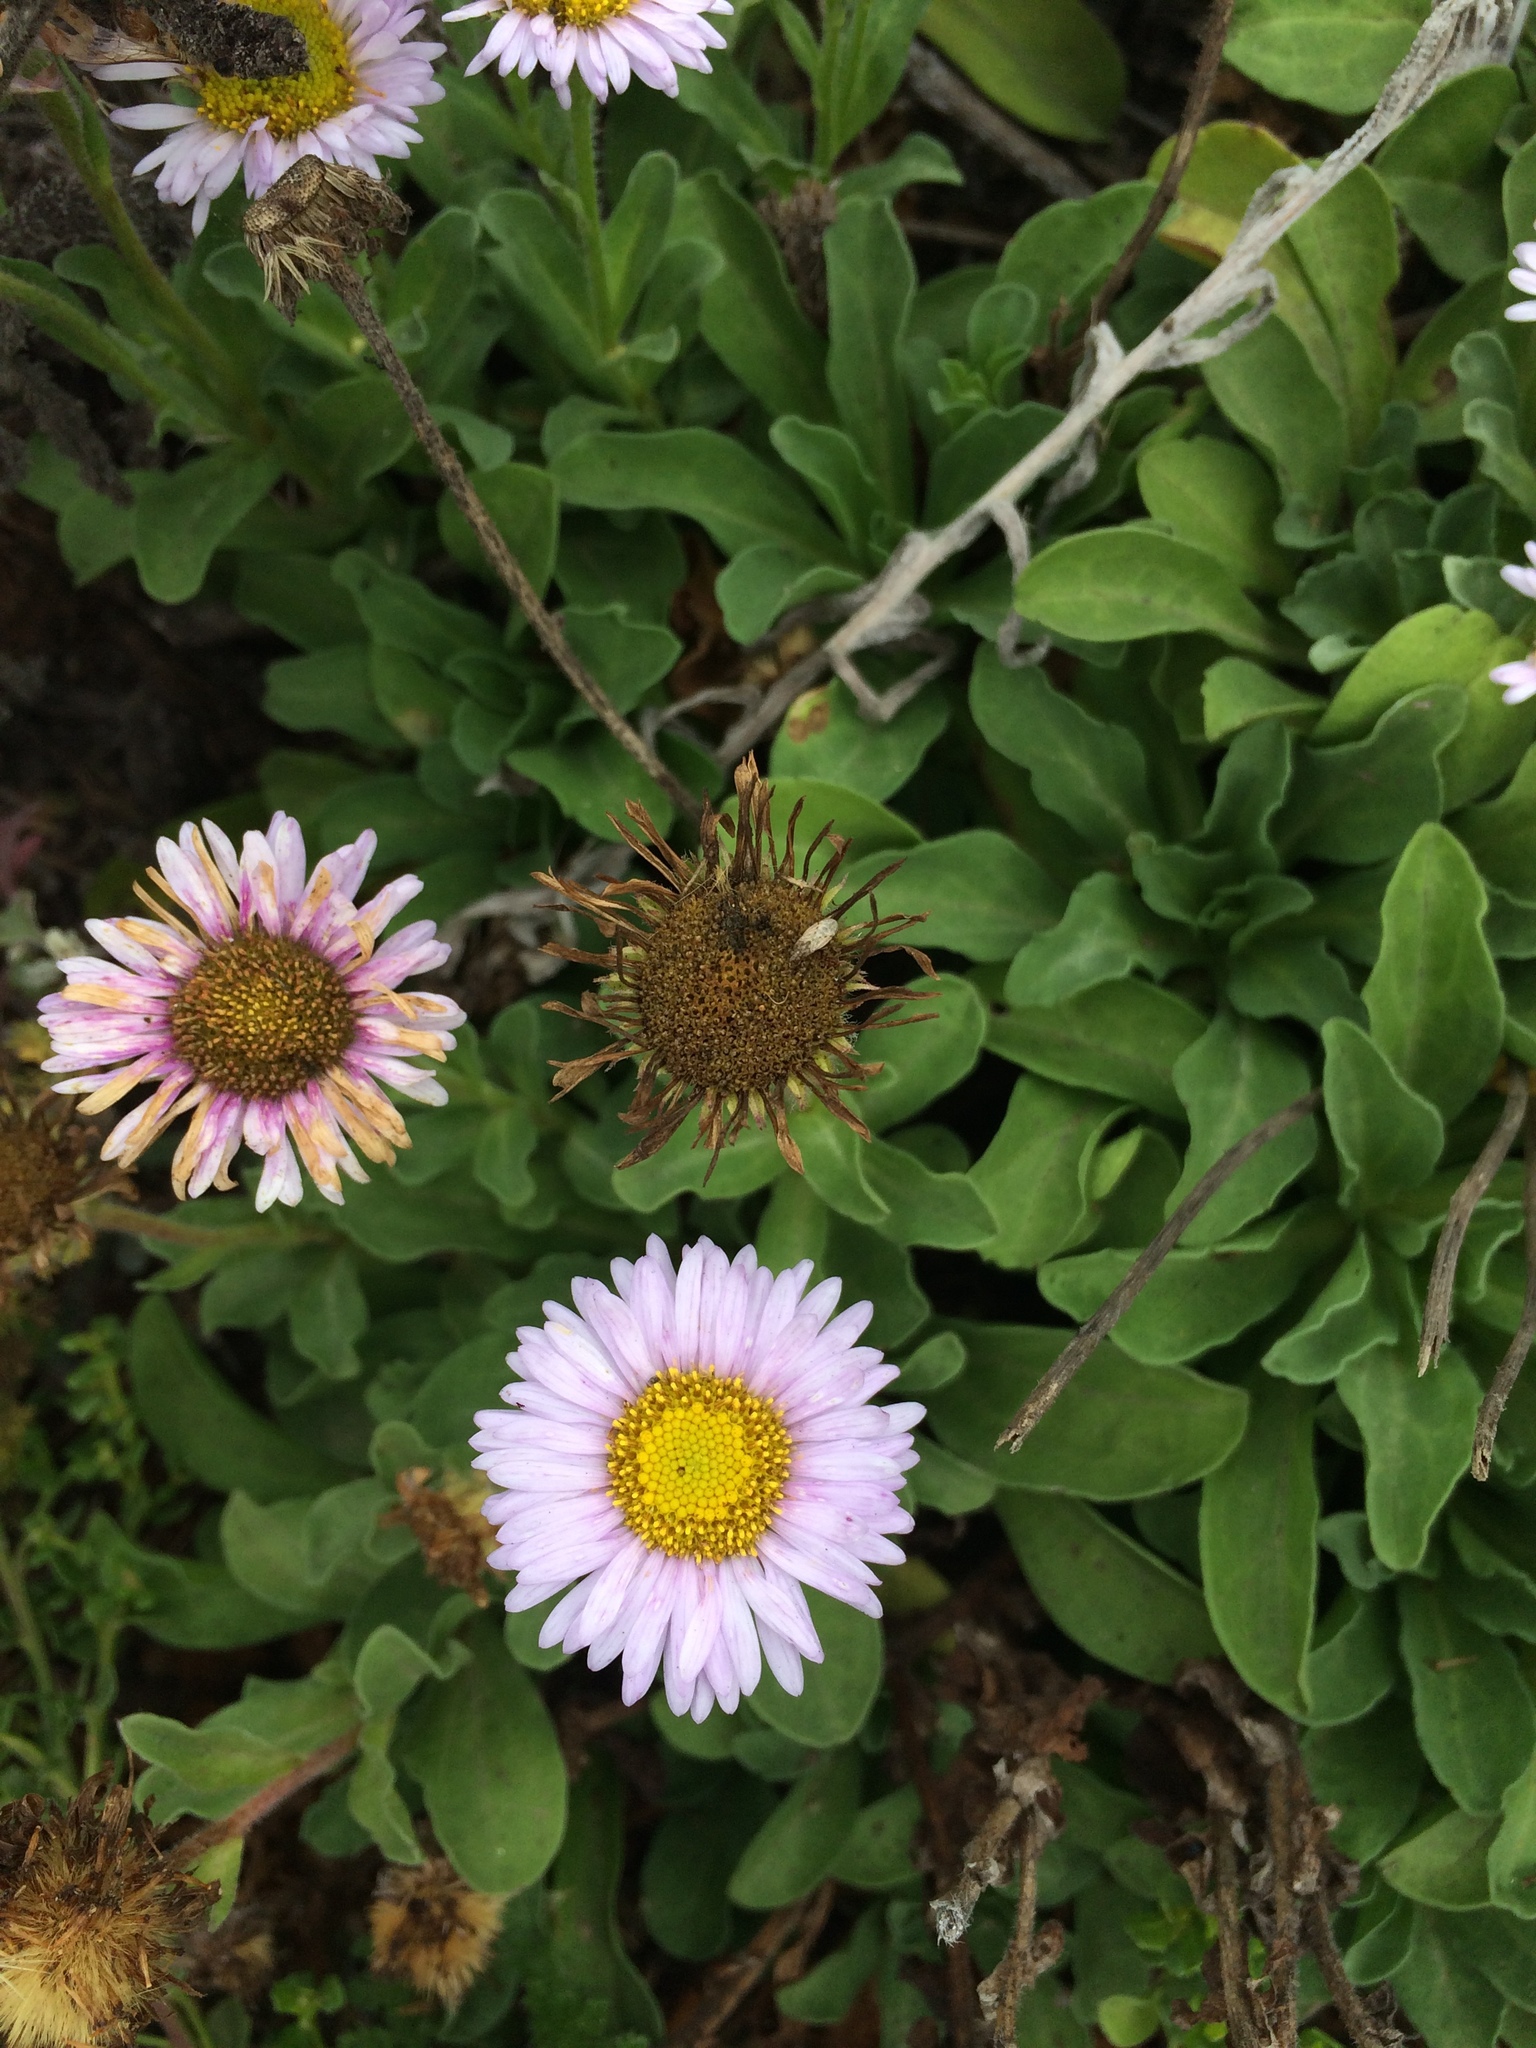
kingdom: Plantae
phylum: Tracheophyta
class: Magnoliopsida
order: Asterales
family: Asteraceae
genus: Erigeron
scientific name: Erigeron glaucus
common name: Seaside daisy
